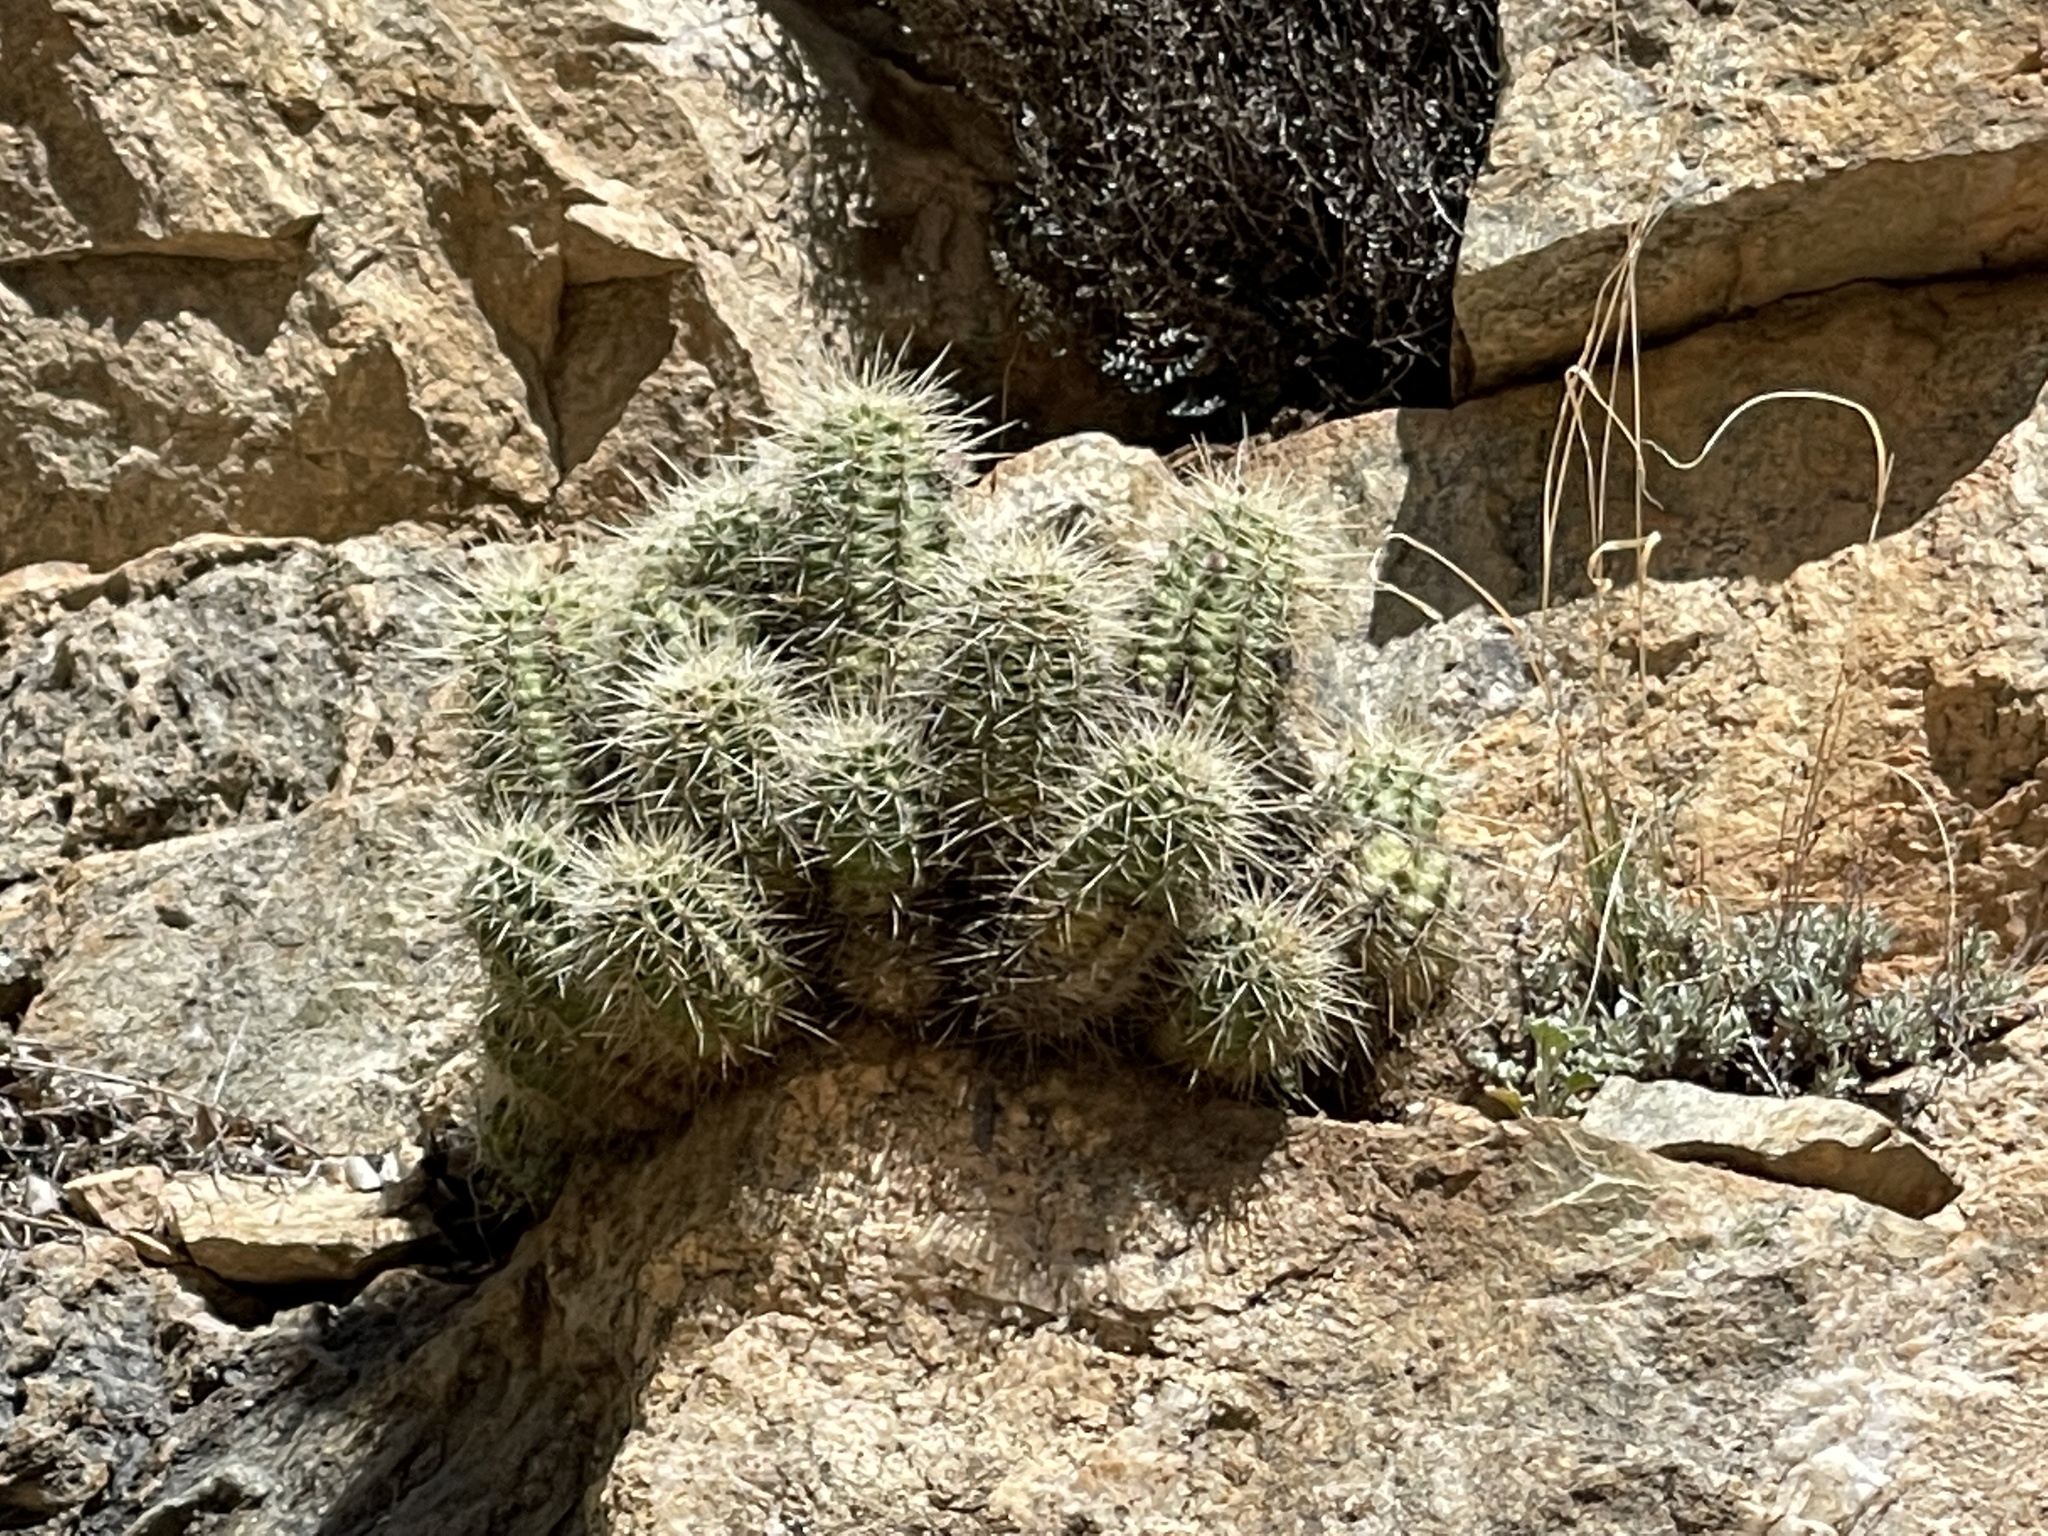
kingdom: Plantae
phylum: Tracheophyta
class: Magnoliopsida
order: Caryophyllales
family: Cactaceae
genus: Echinocereus
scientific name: Echinocereus bakeri
